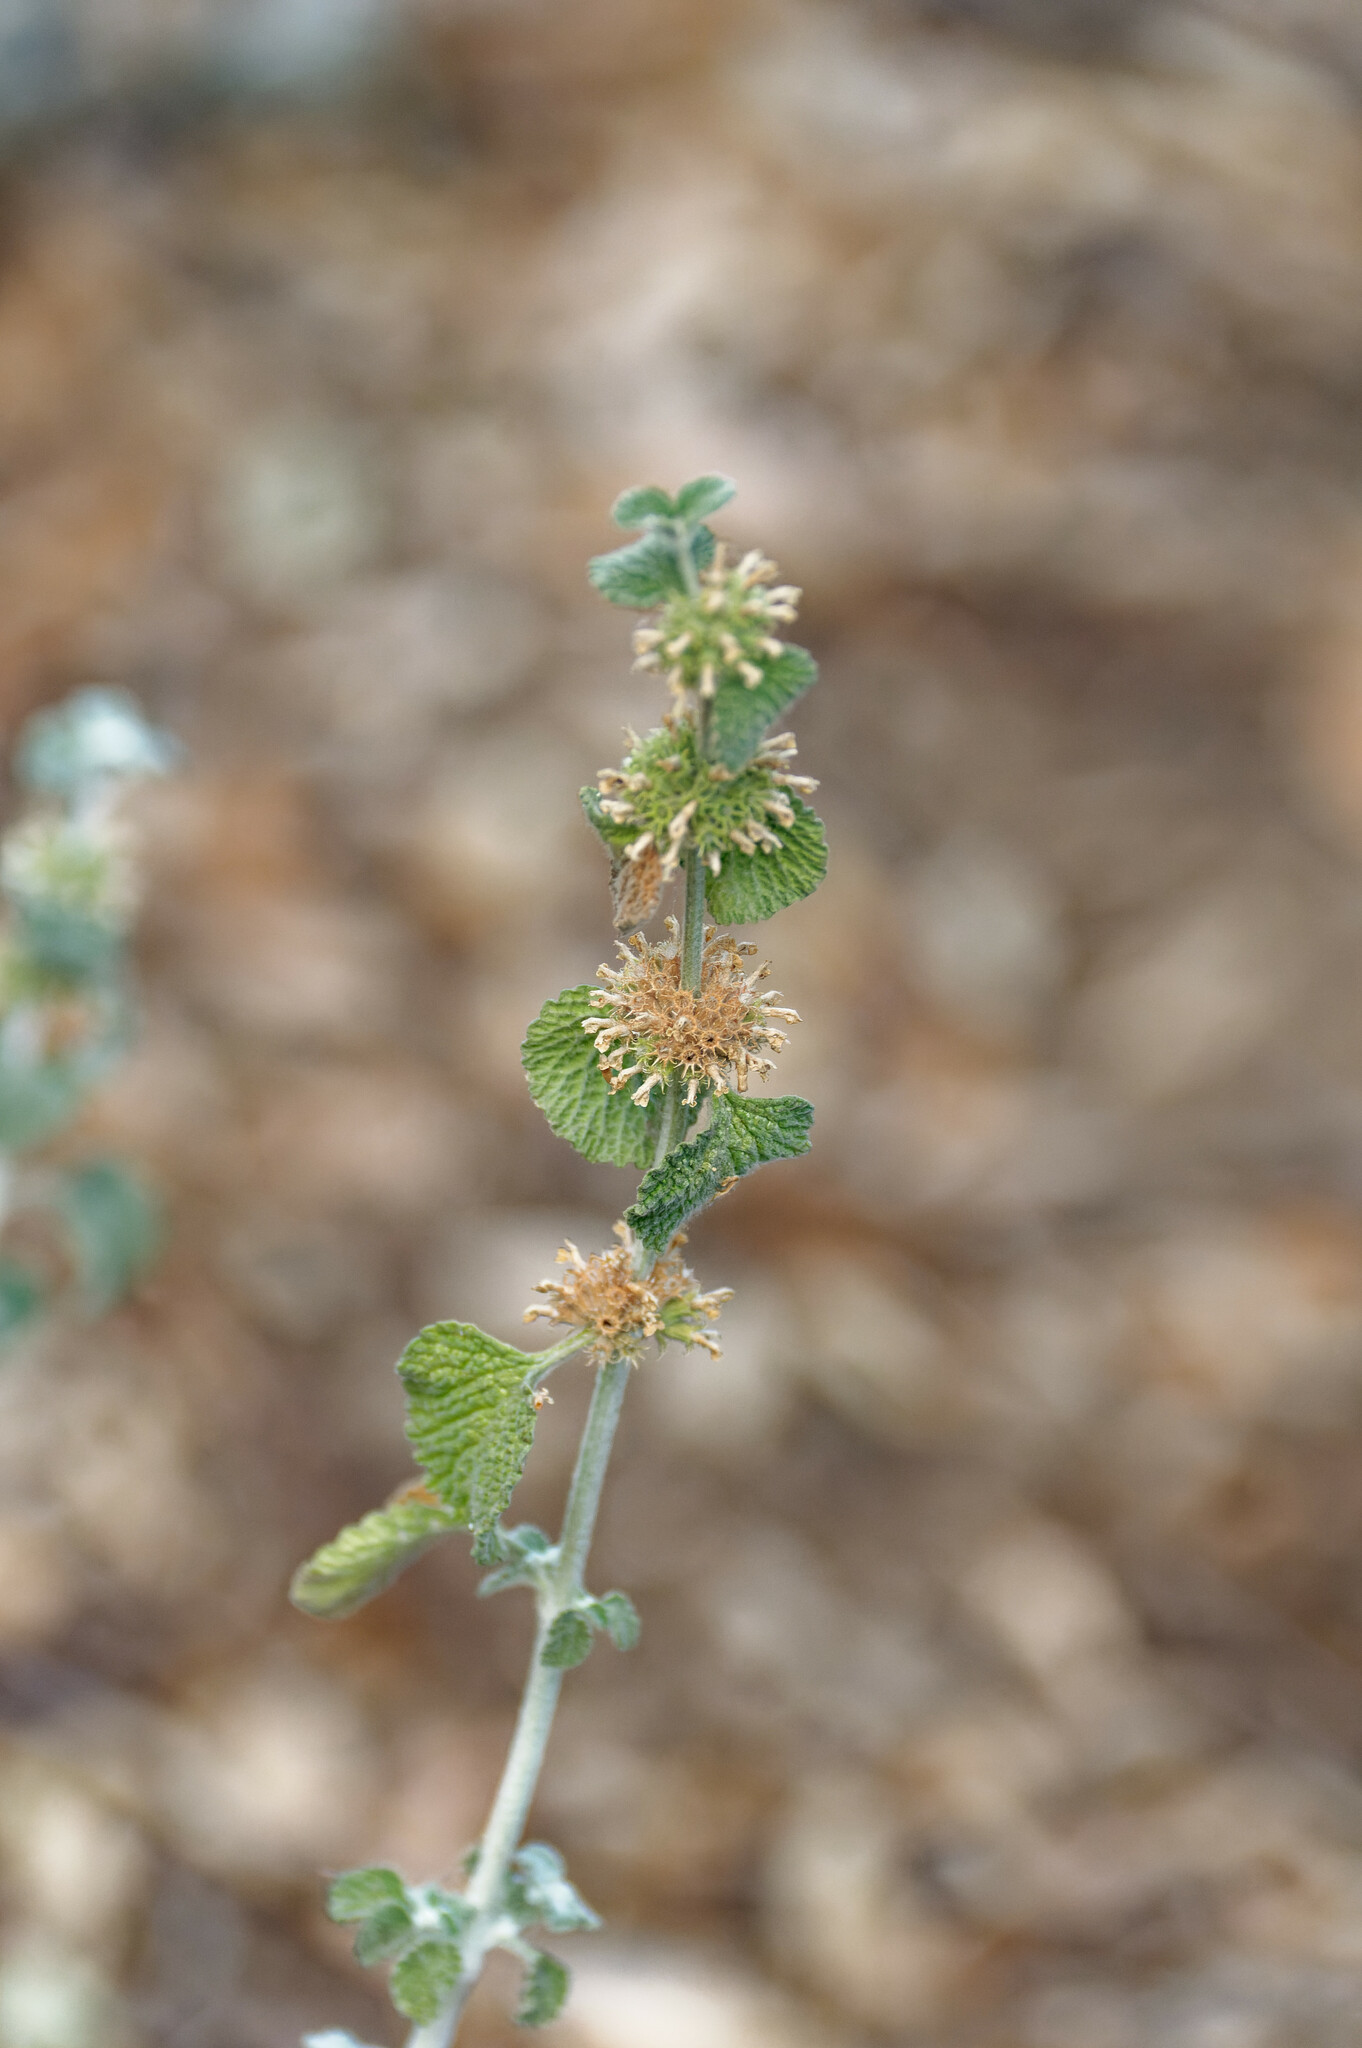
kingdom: Plantae
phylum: Tracheophyta
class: Magnoliopsida
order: Lamiales
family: Lamiaceae
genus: Marrubium
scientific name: Marrubium vulgare
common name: Horehound
